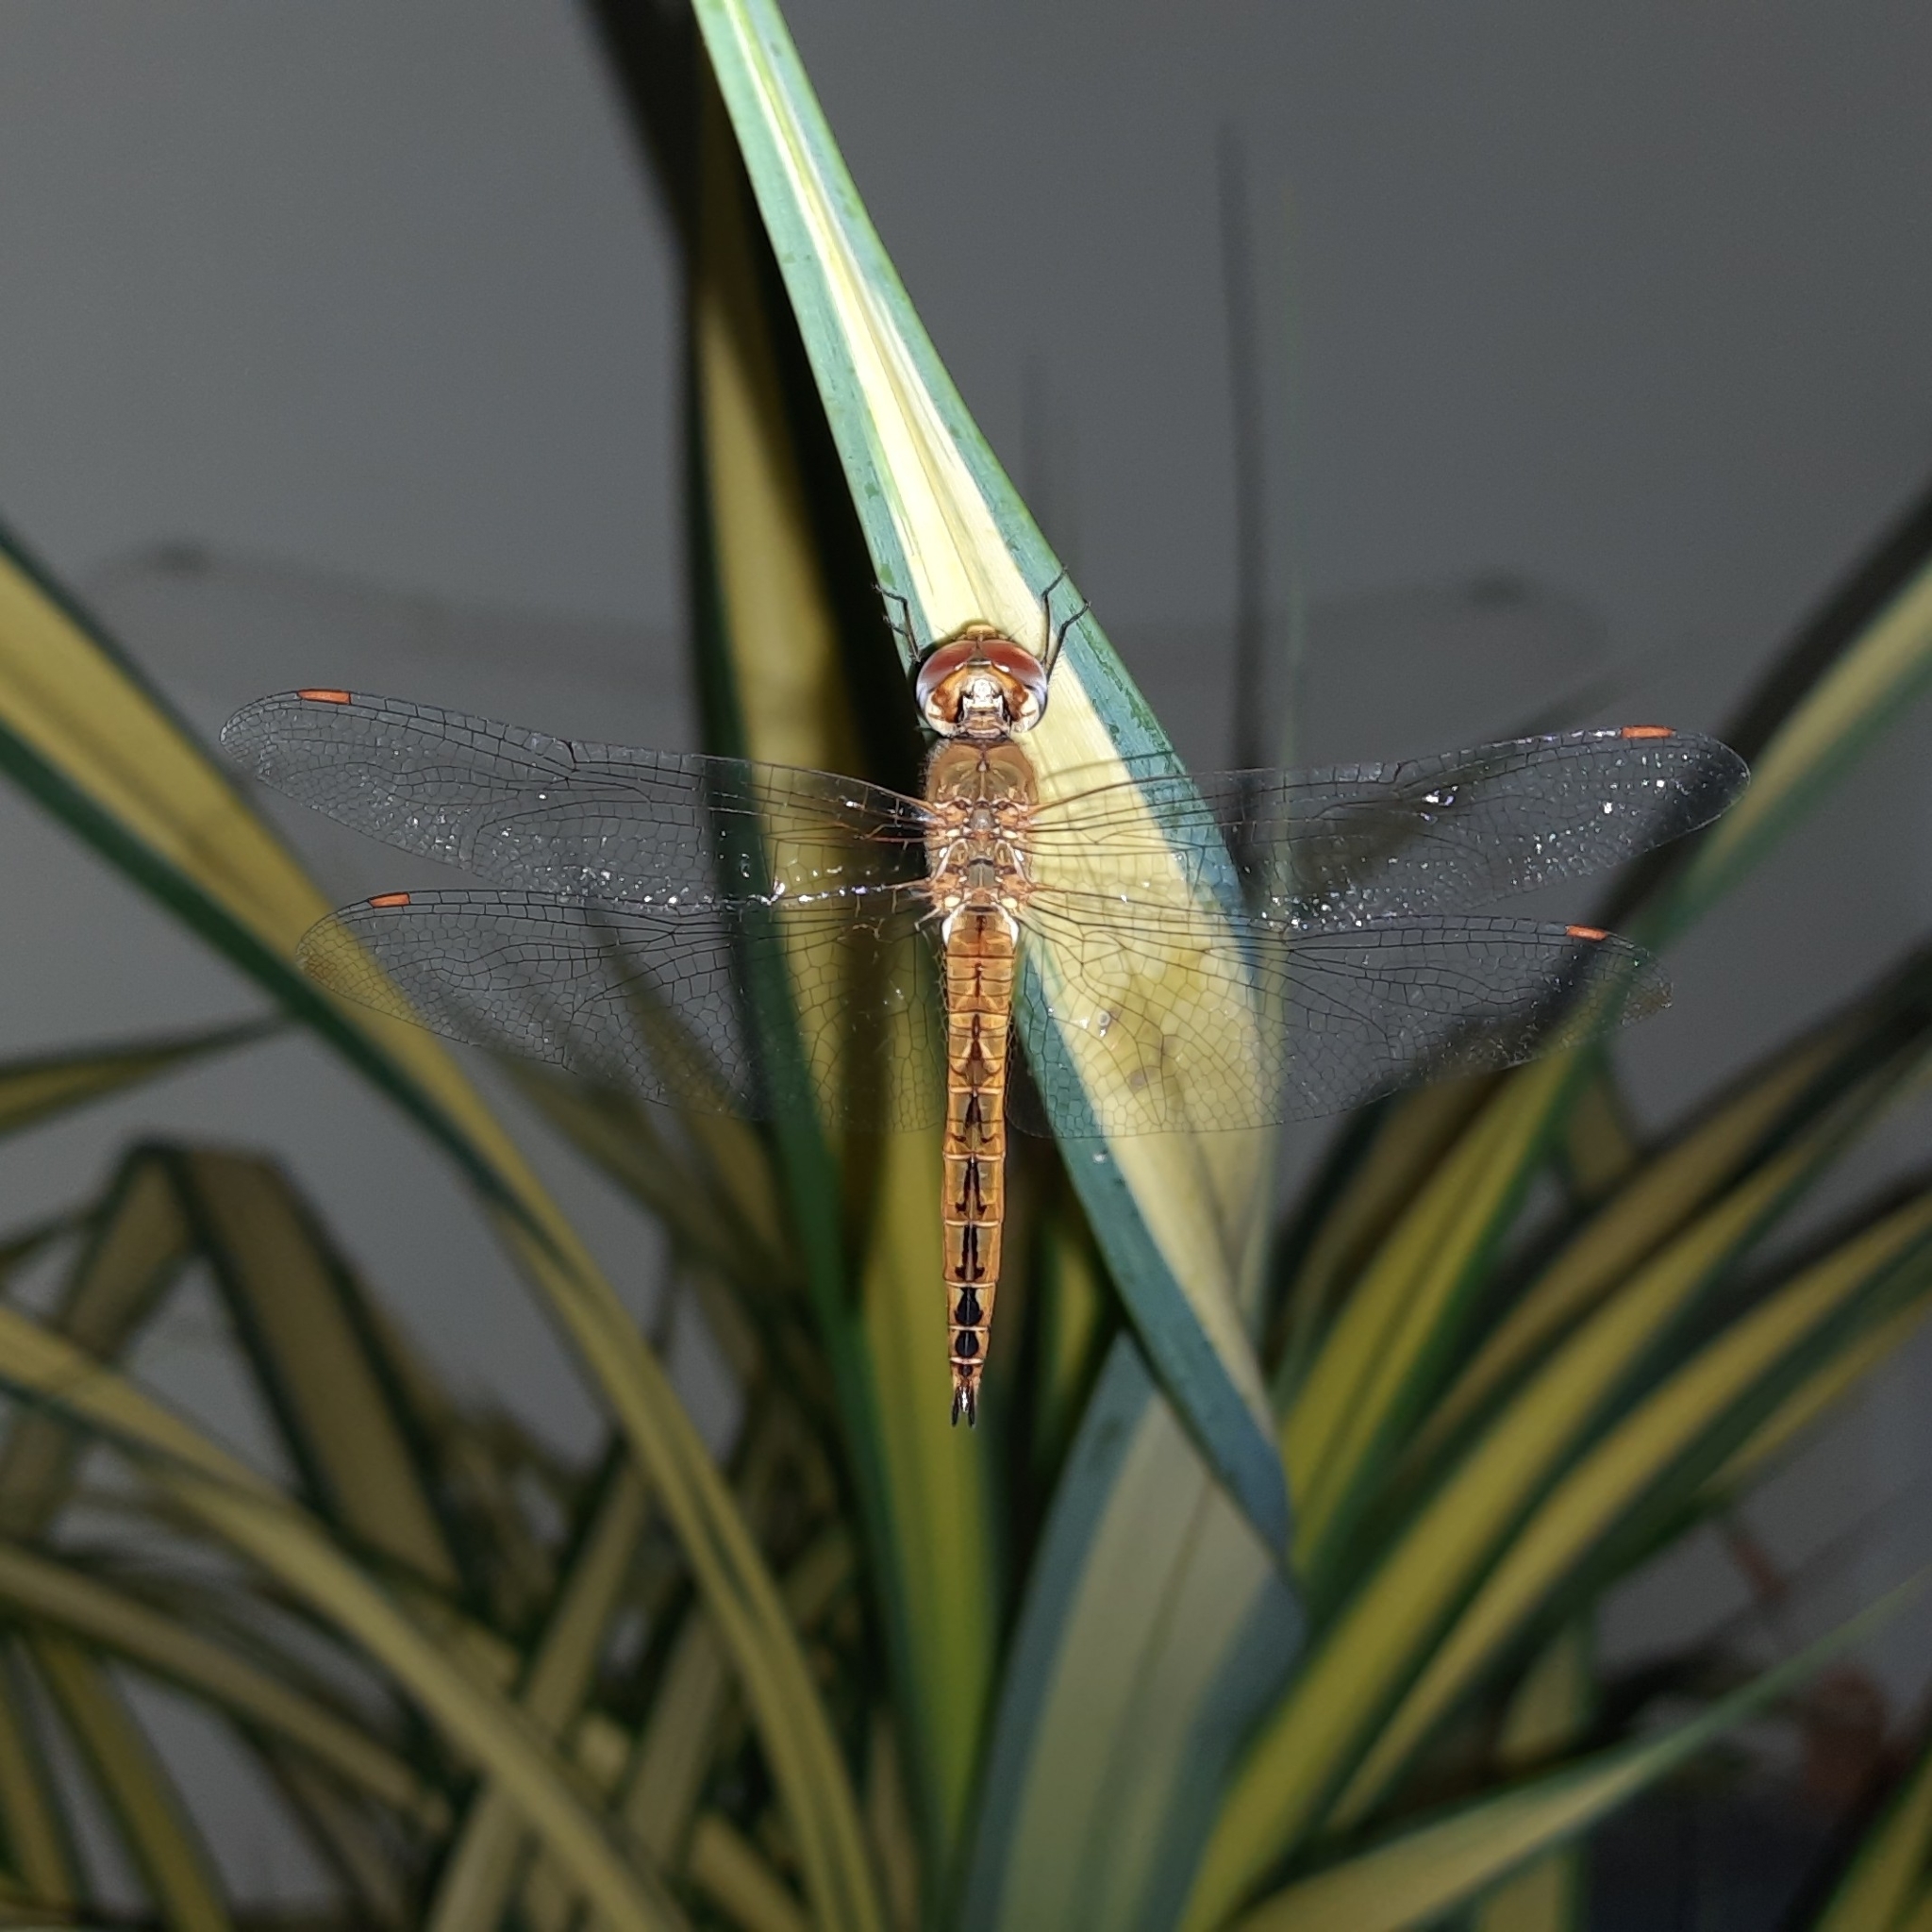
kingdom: Animalia
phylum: Arthropoda
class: Insecta
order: Odonata
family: Libellulidae
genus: Pantala
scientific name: Pantala flavescens
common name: Wandering glider
